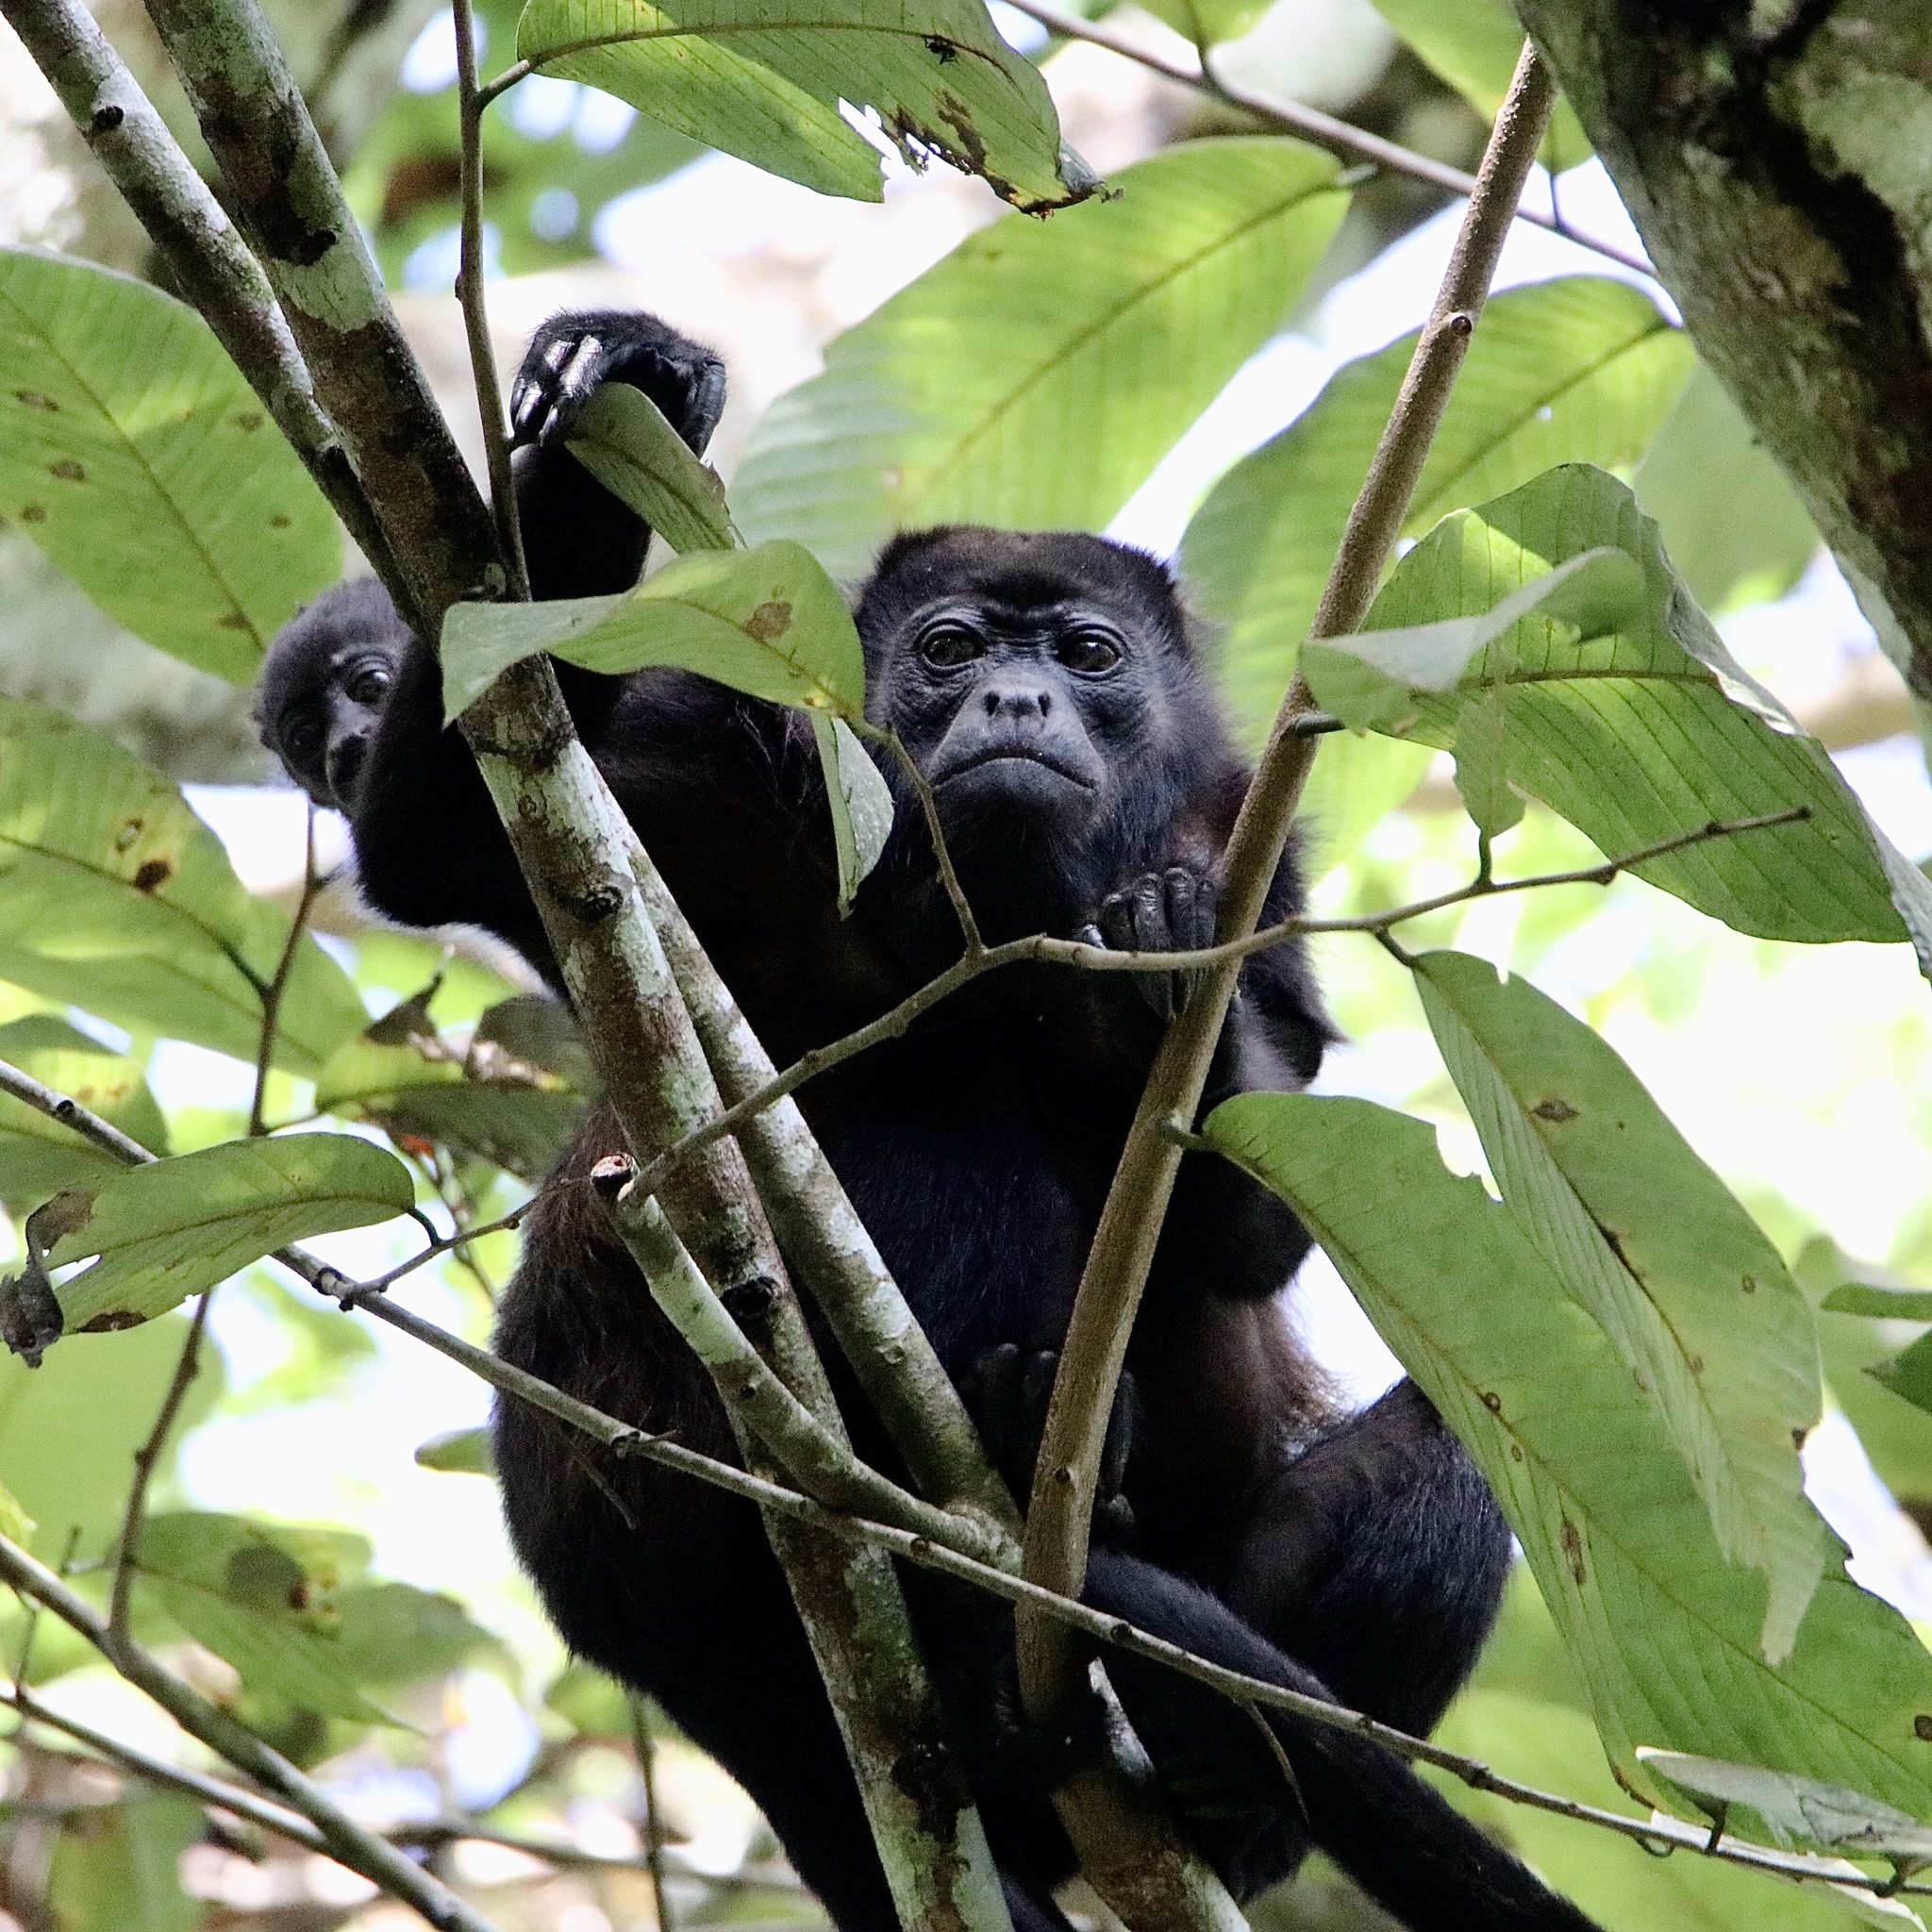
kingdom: Animalia
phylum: Chordata
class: Mammalia
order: Primates
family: Atelidae
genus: Alouatta
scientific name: Alouatta palliata
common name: Mantled howler
